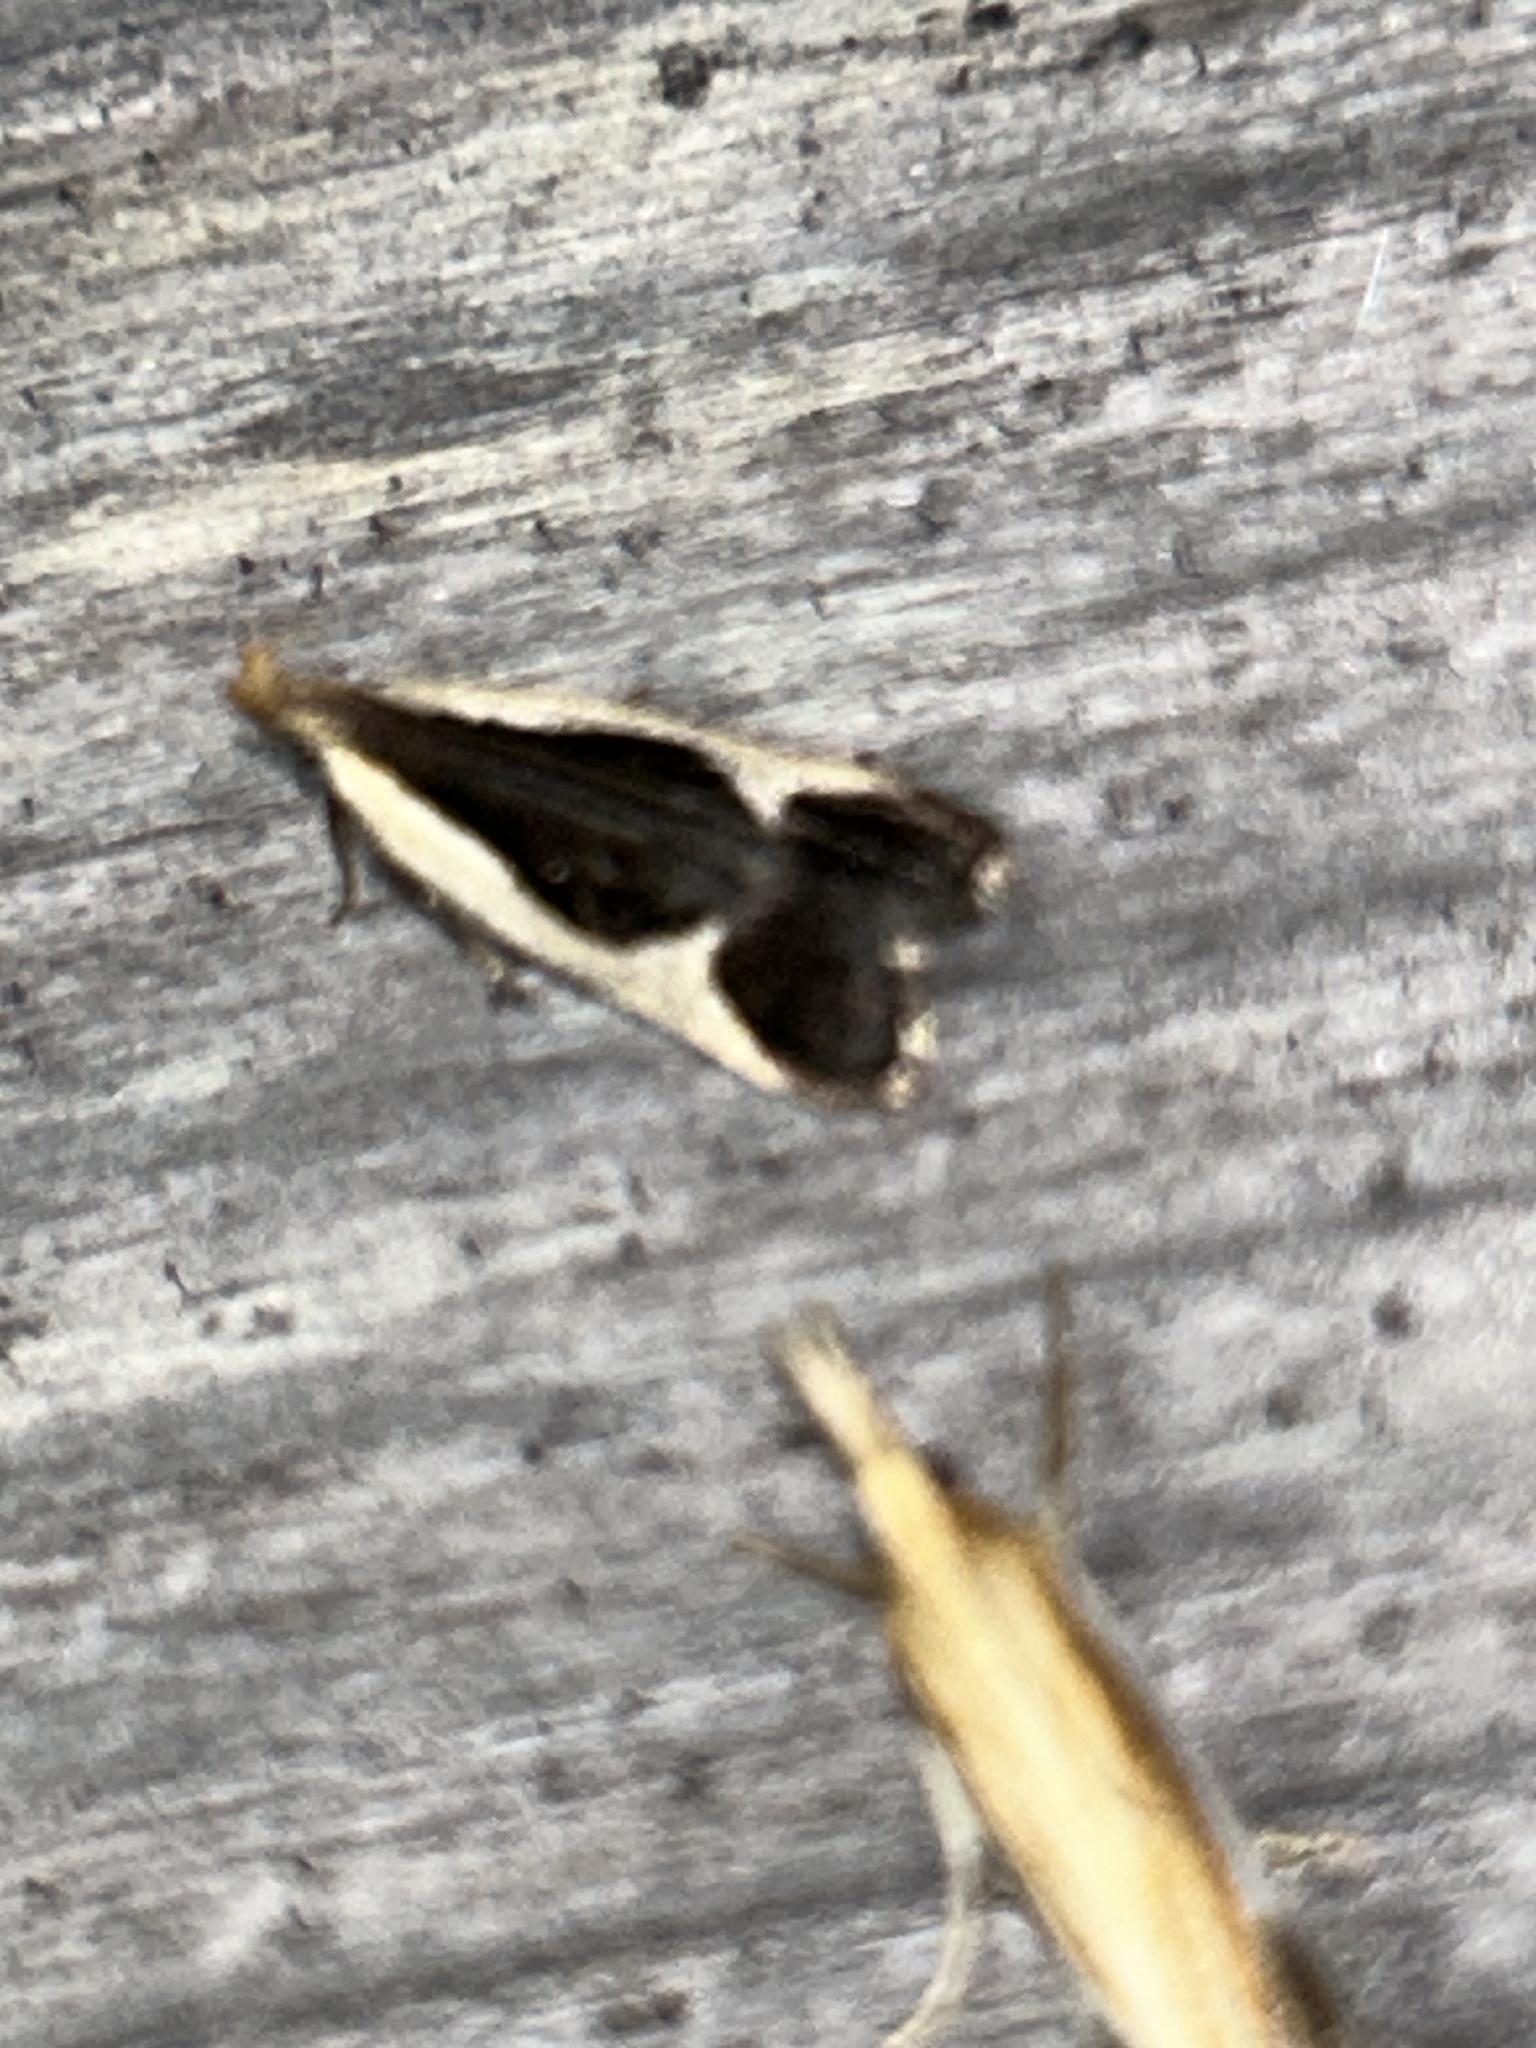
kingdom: Animalia
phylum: Arthropoda
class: Insecta
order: Lepidoptera
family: Gelechiidae
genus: Dichomeris
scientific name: Dichomeris flavocostella
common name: Cream-edged dichomeris moth
